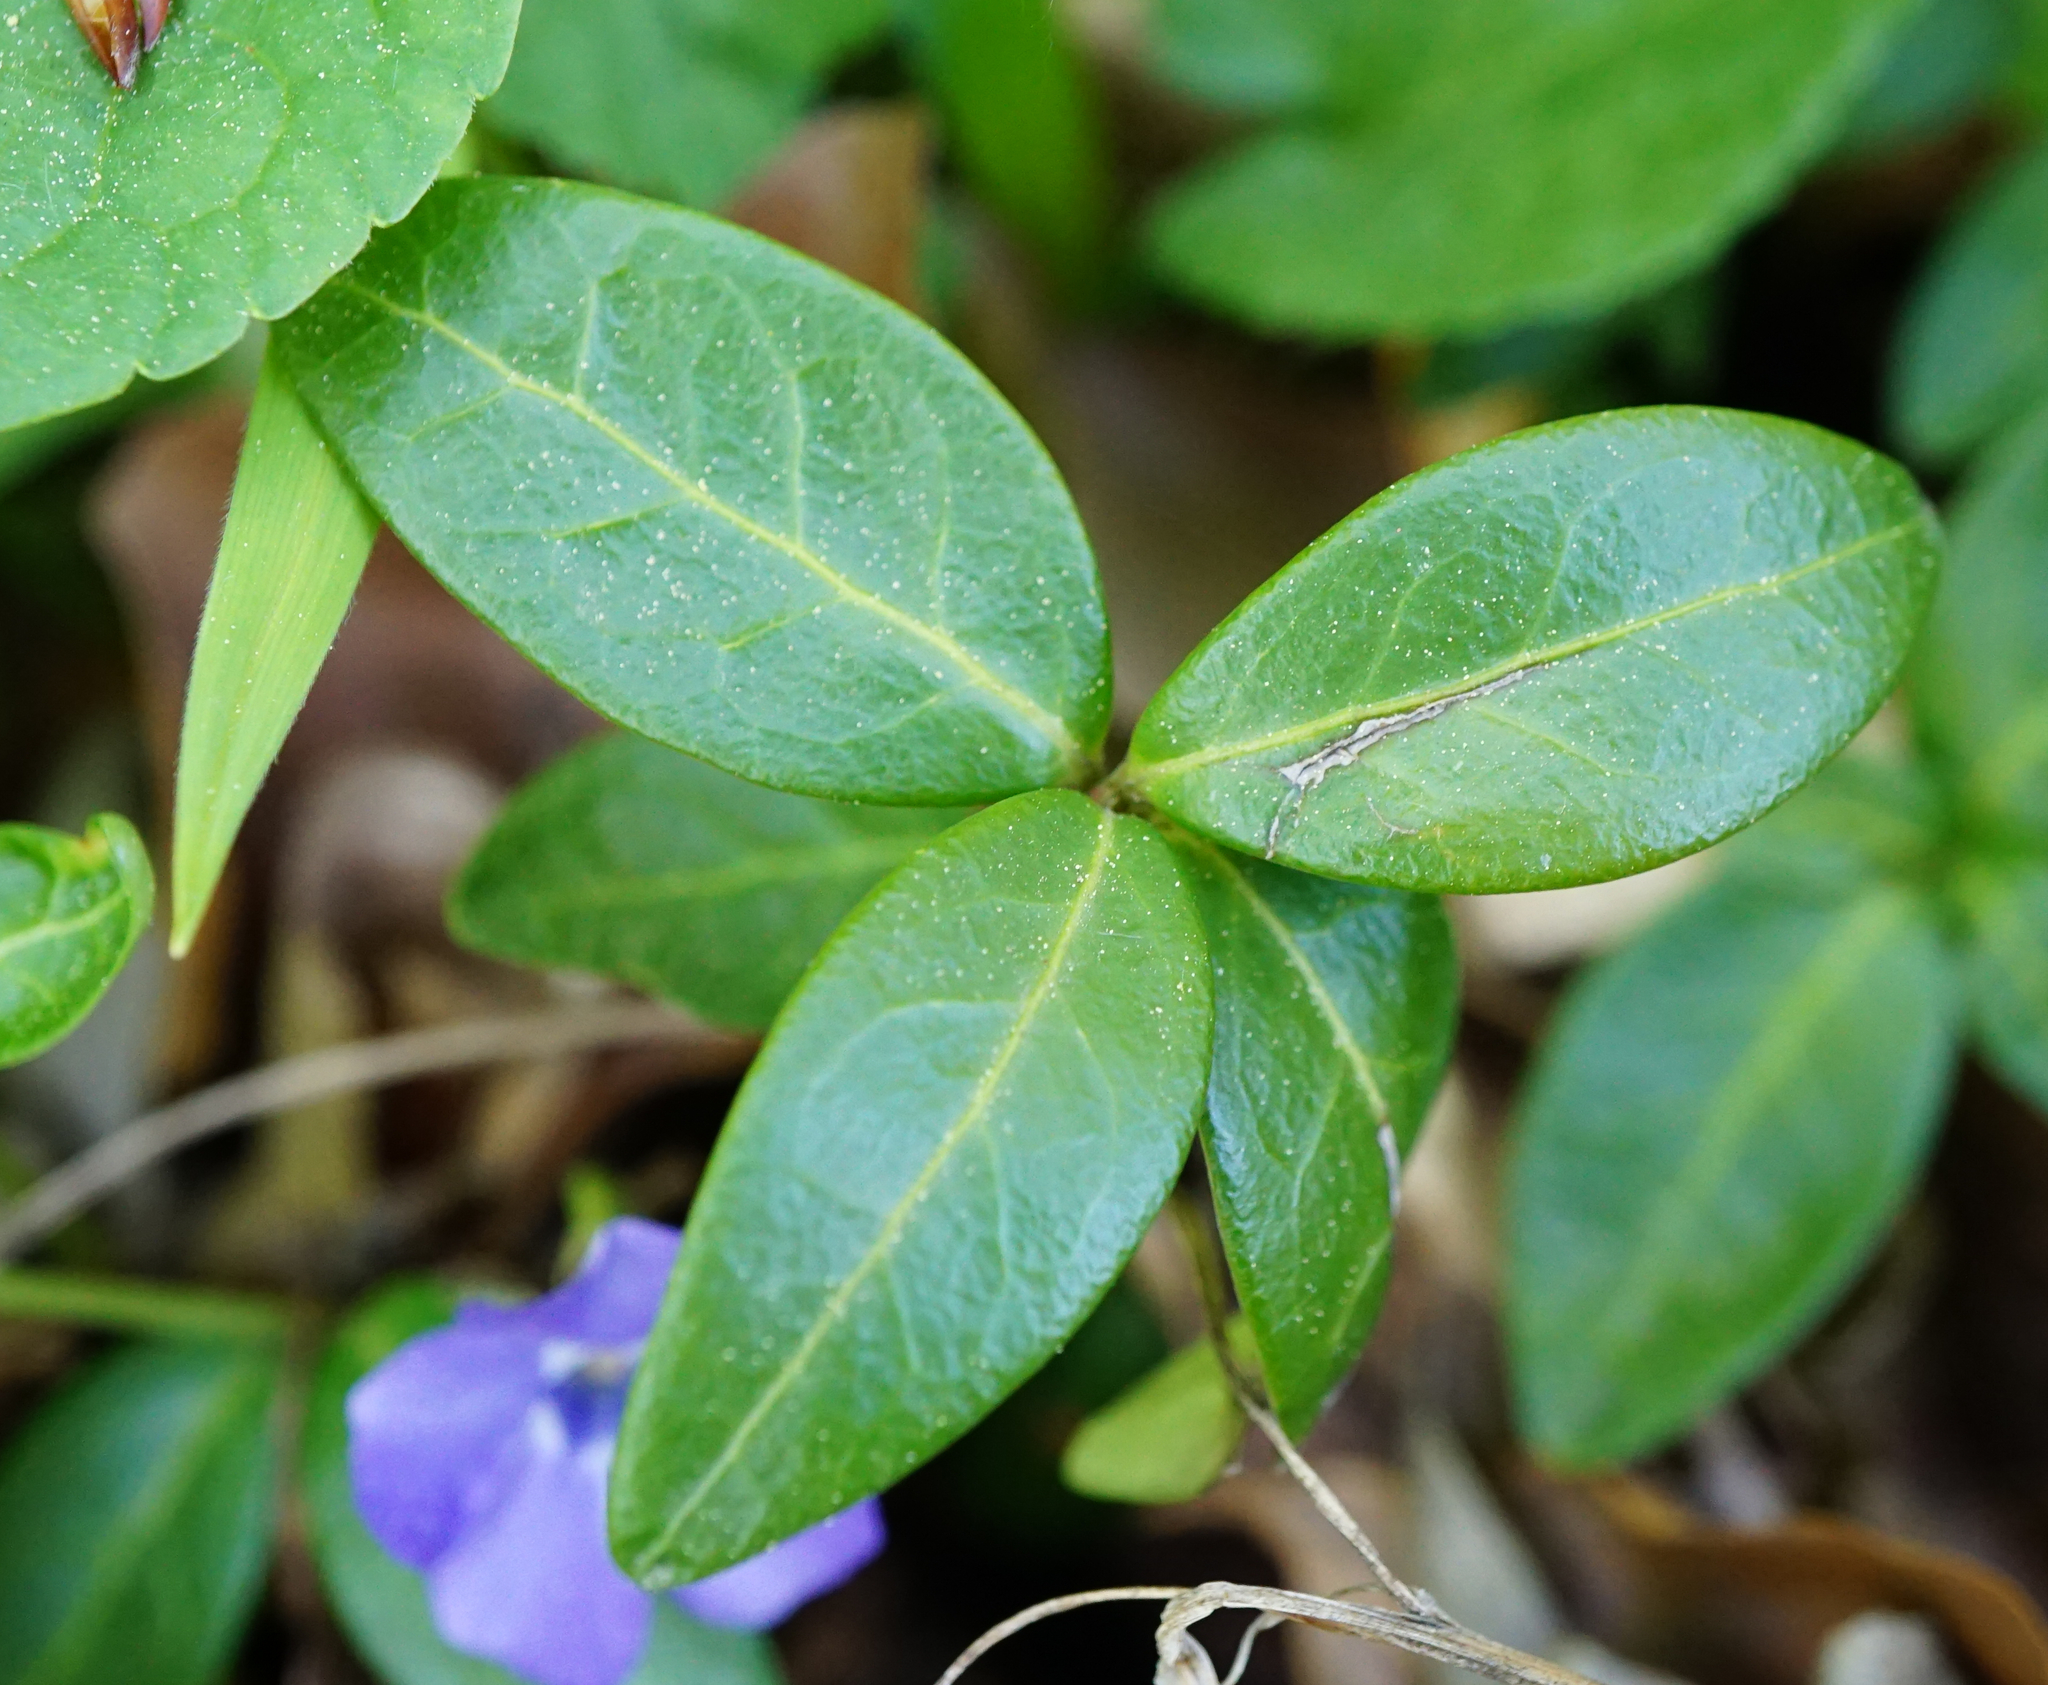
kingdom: Plantae
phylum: Tracheophyta
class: Magnoliopsida
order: Gentianales
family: Apocynaceae
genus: Vinca
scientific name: Vinca minor
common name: Lesser periwinkle
